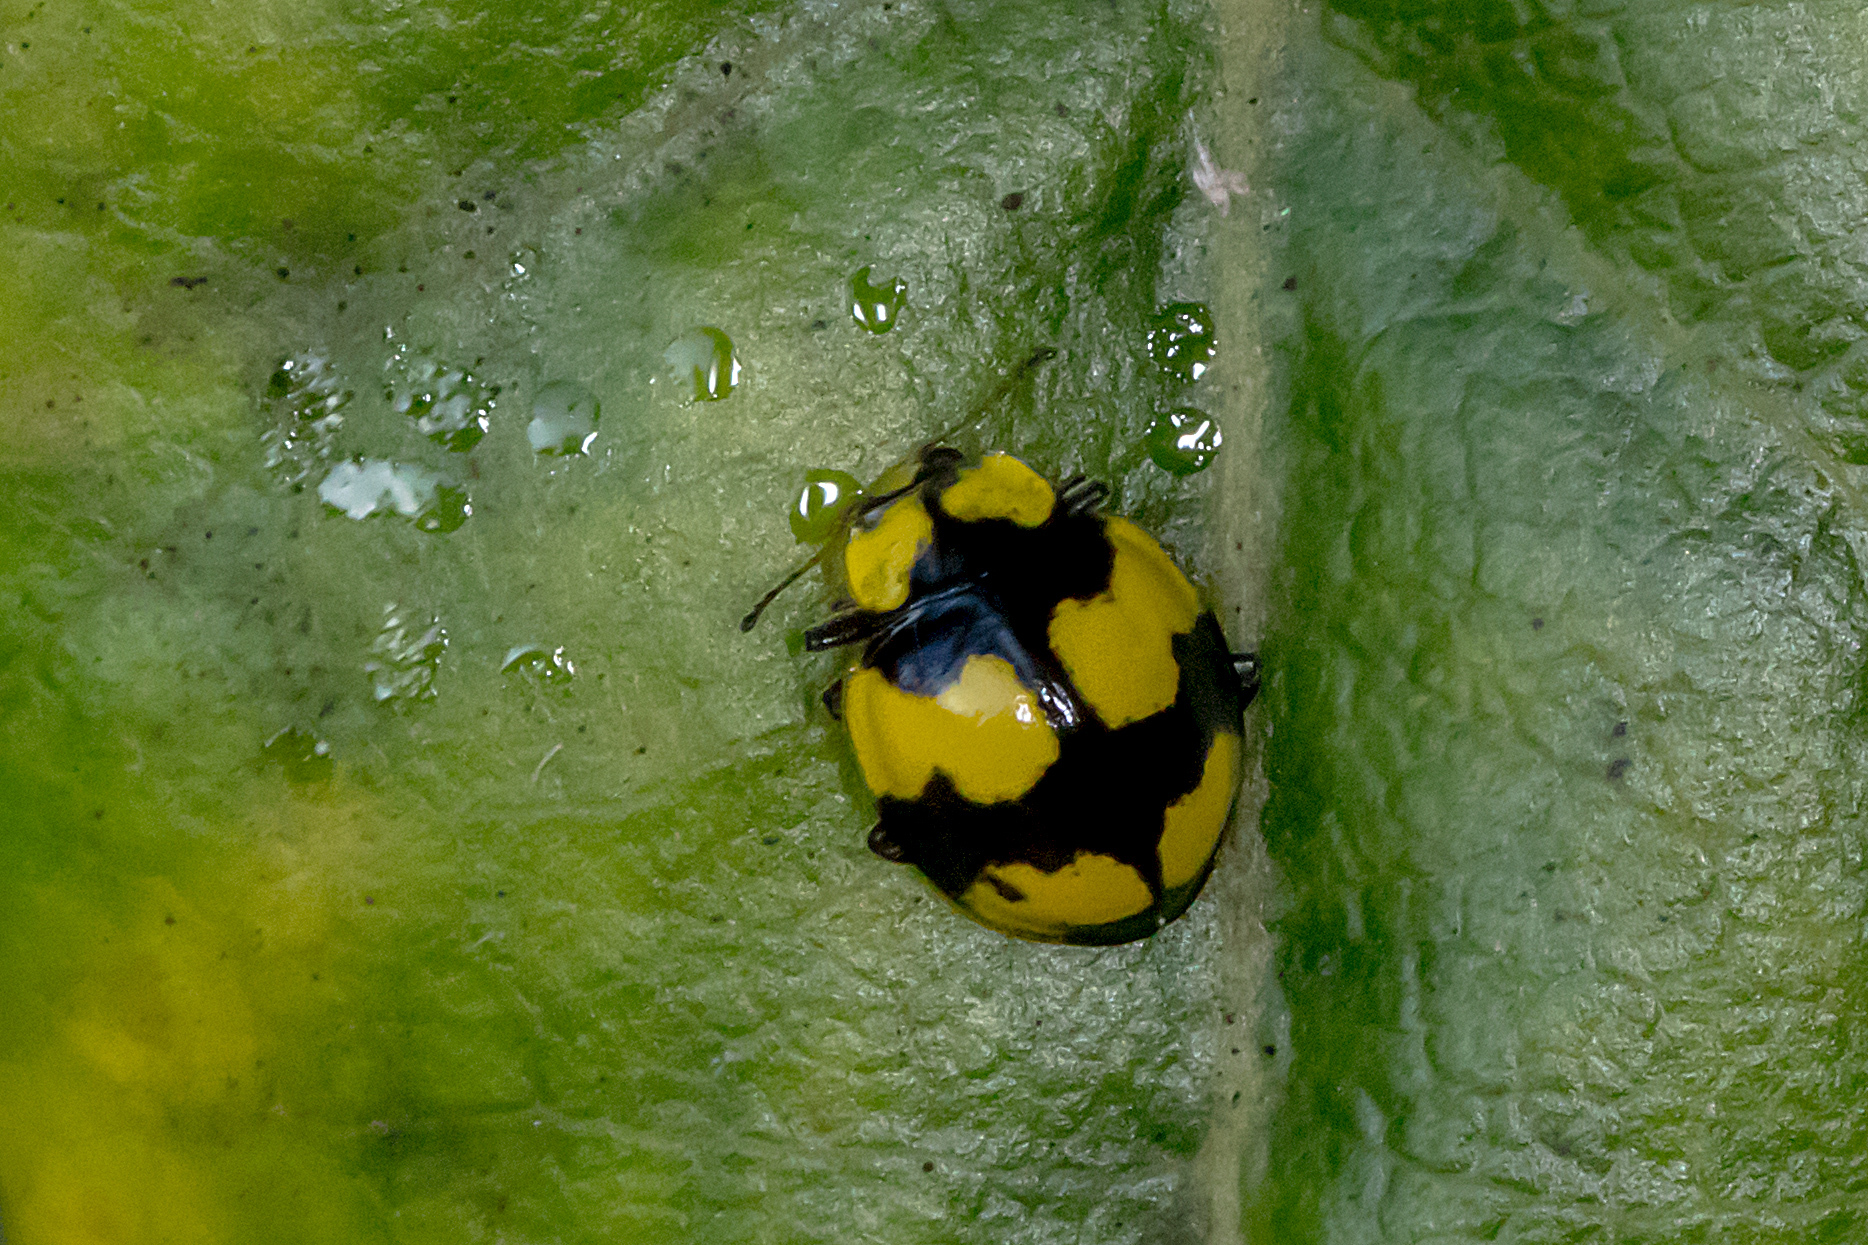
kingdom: Animalia
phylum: Arthropoda
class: Insecta
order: Coleoptera
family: Coccinellidae
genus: Illeis
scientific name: Illeis galbula
